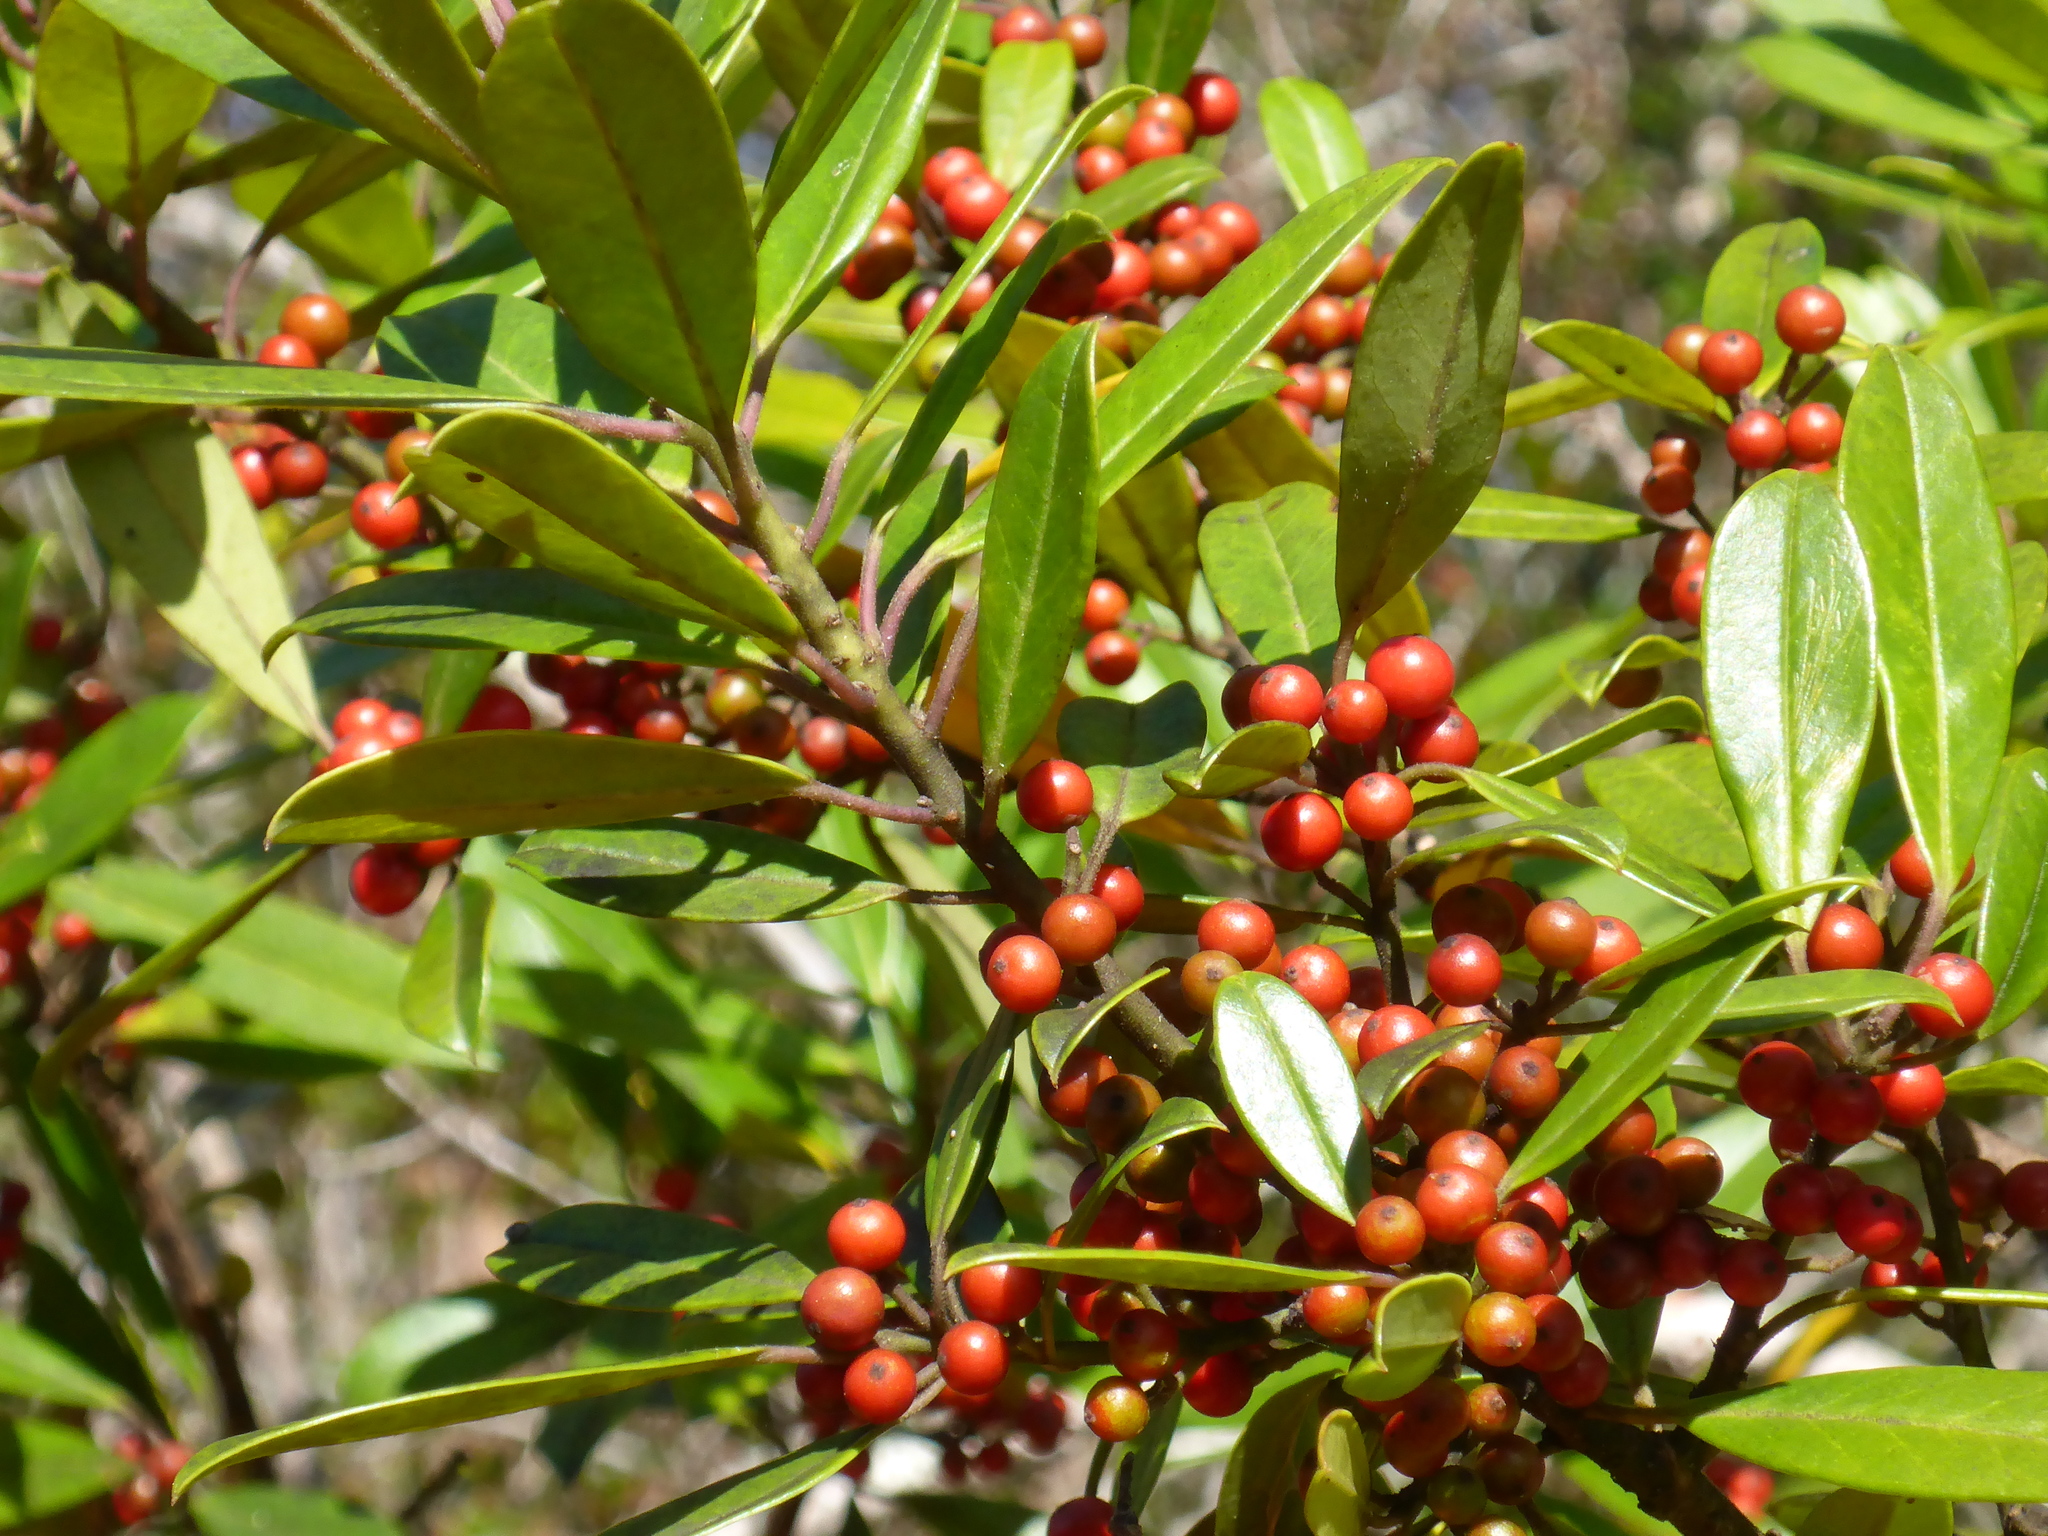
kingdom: Plantae
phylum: Tracheophyta
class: Magnoliopsida
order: Aquifoliales
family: Aquifoliaceae
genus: Ilex
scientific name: Ilex cassine
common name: Dahoon
